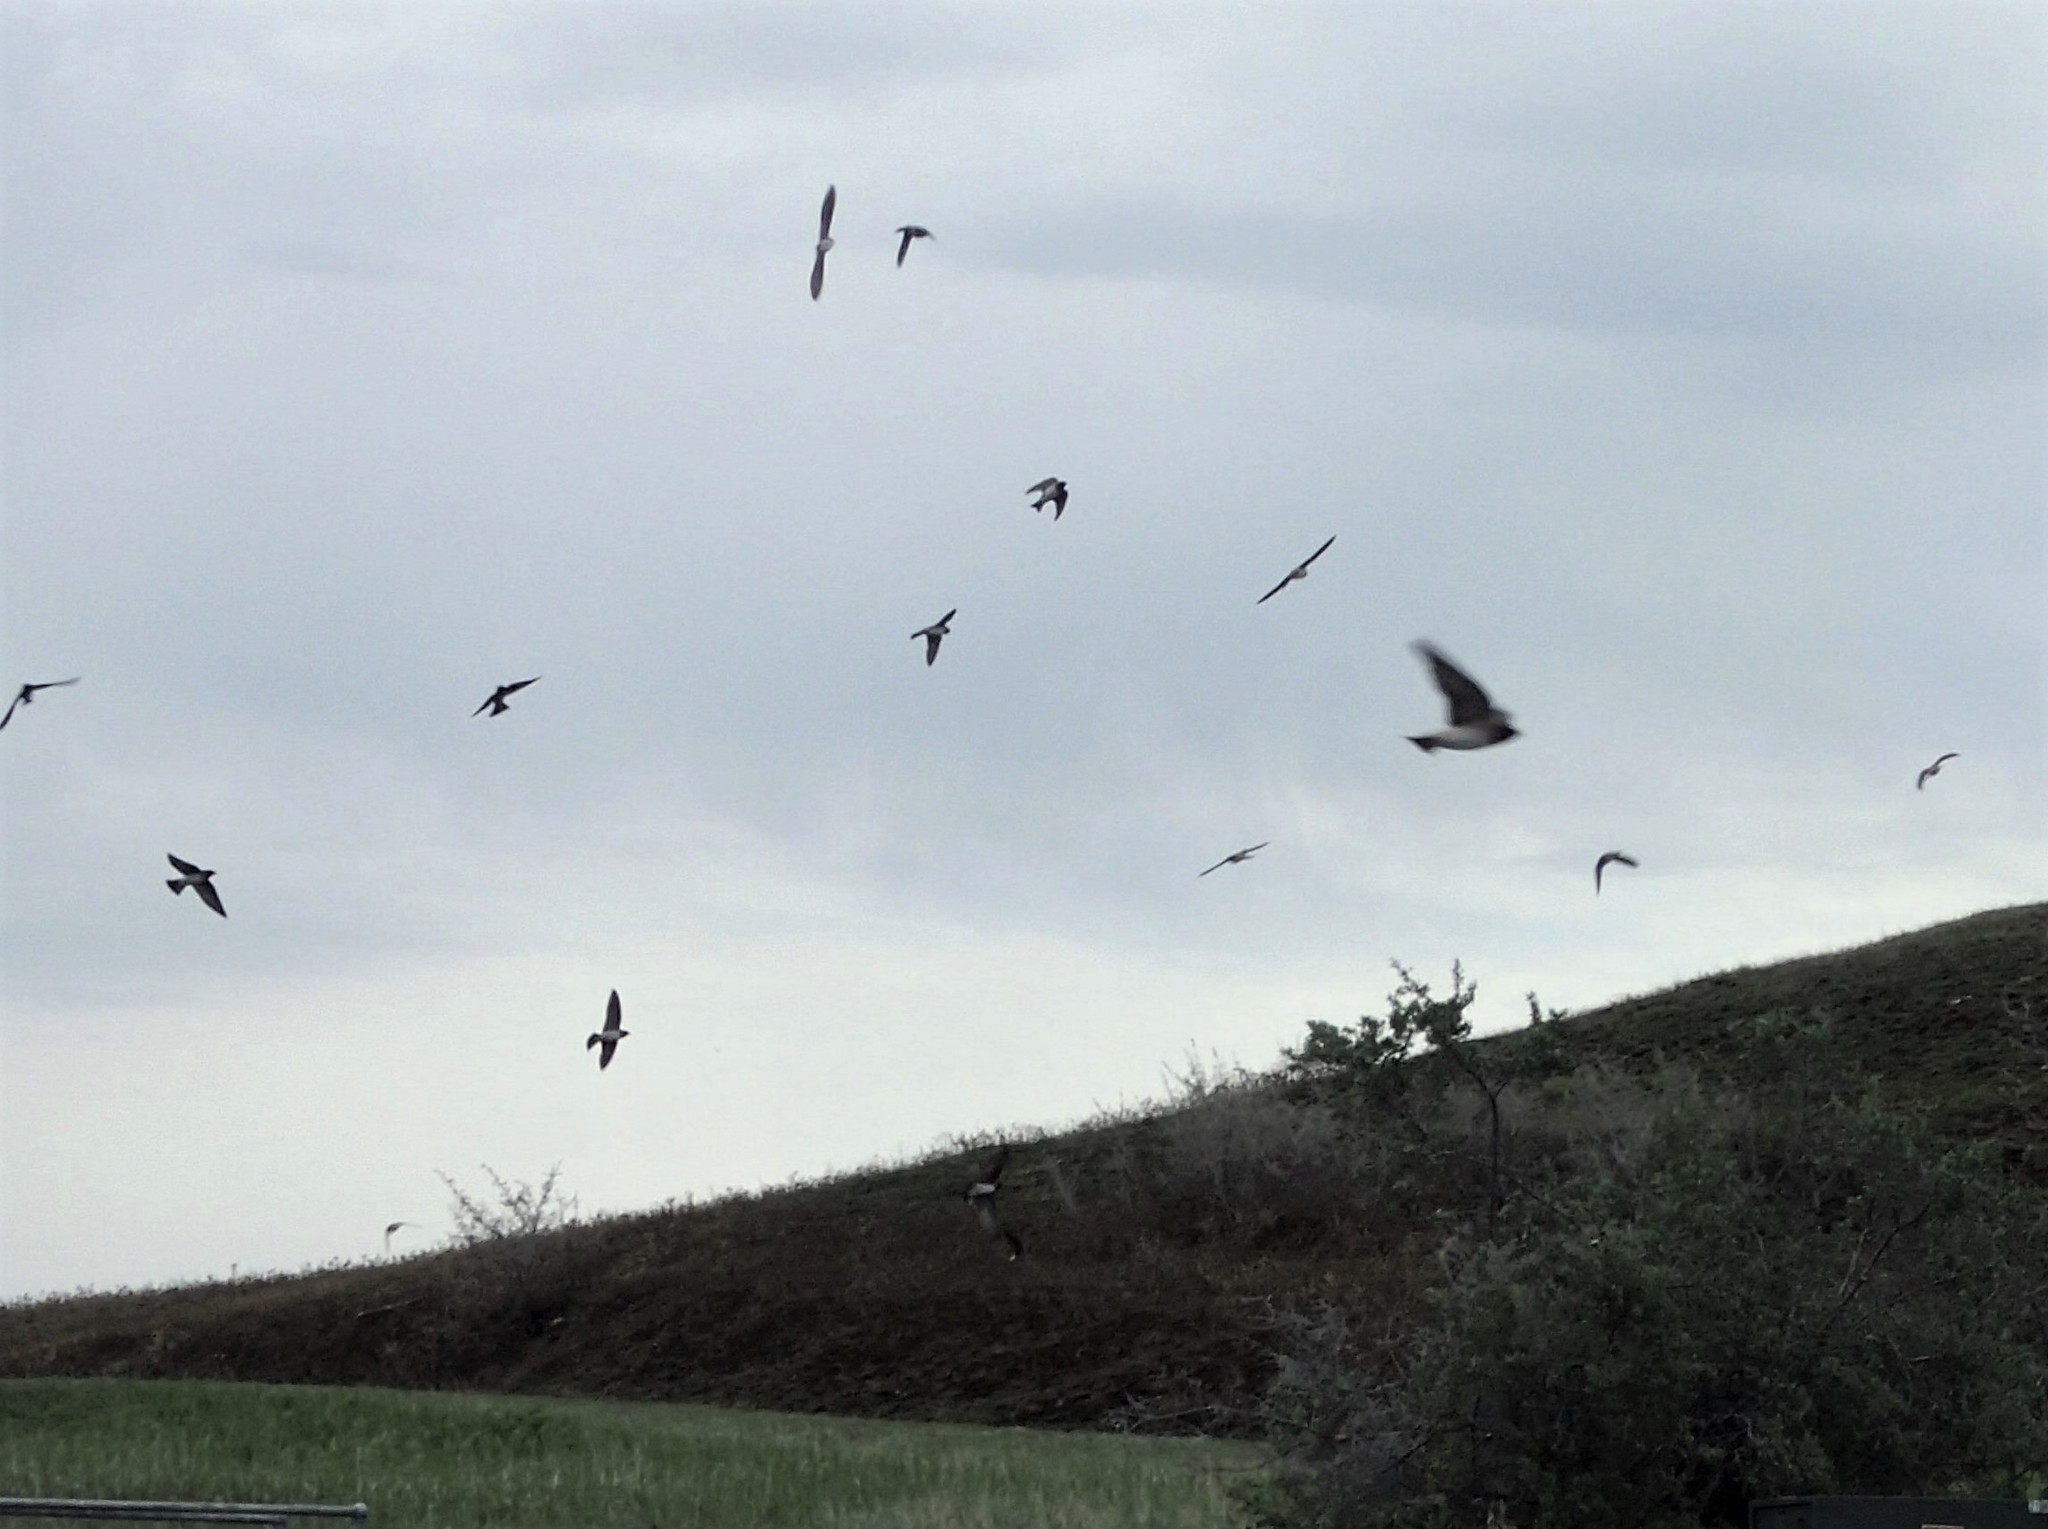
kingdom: Animalia
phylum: Chordata
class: Aves
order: Passeriformes
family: Hirundinidae
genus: Petrochelidon
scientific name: Petrochelidon pyrrhonota
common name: American cliff swallow
